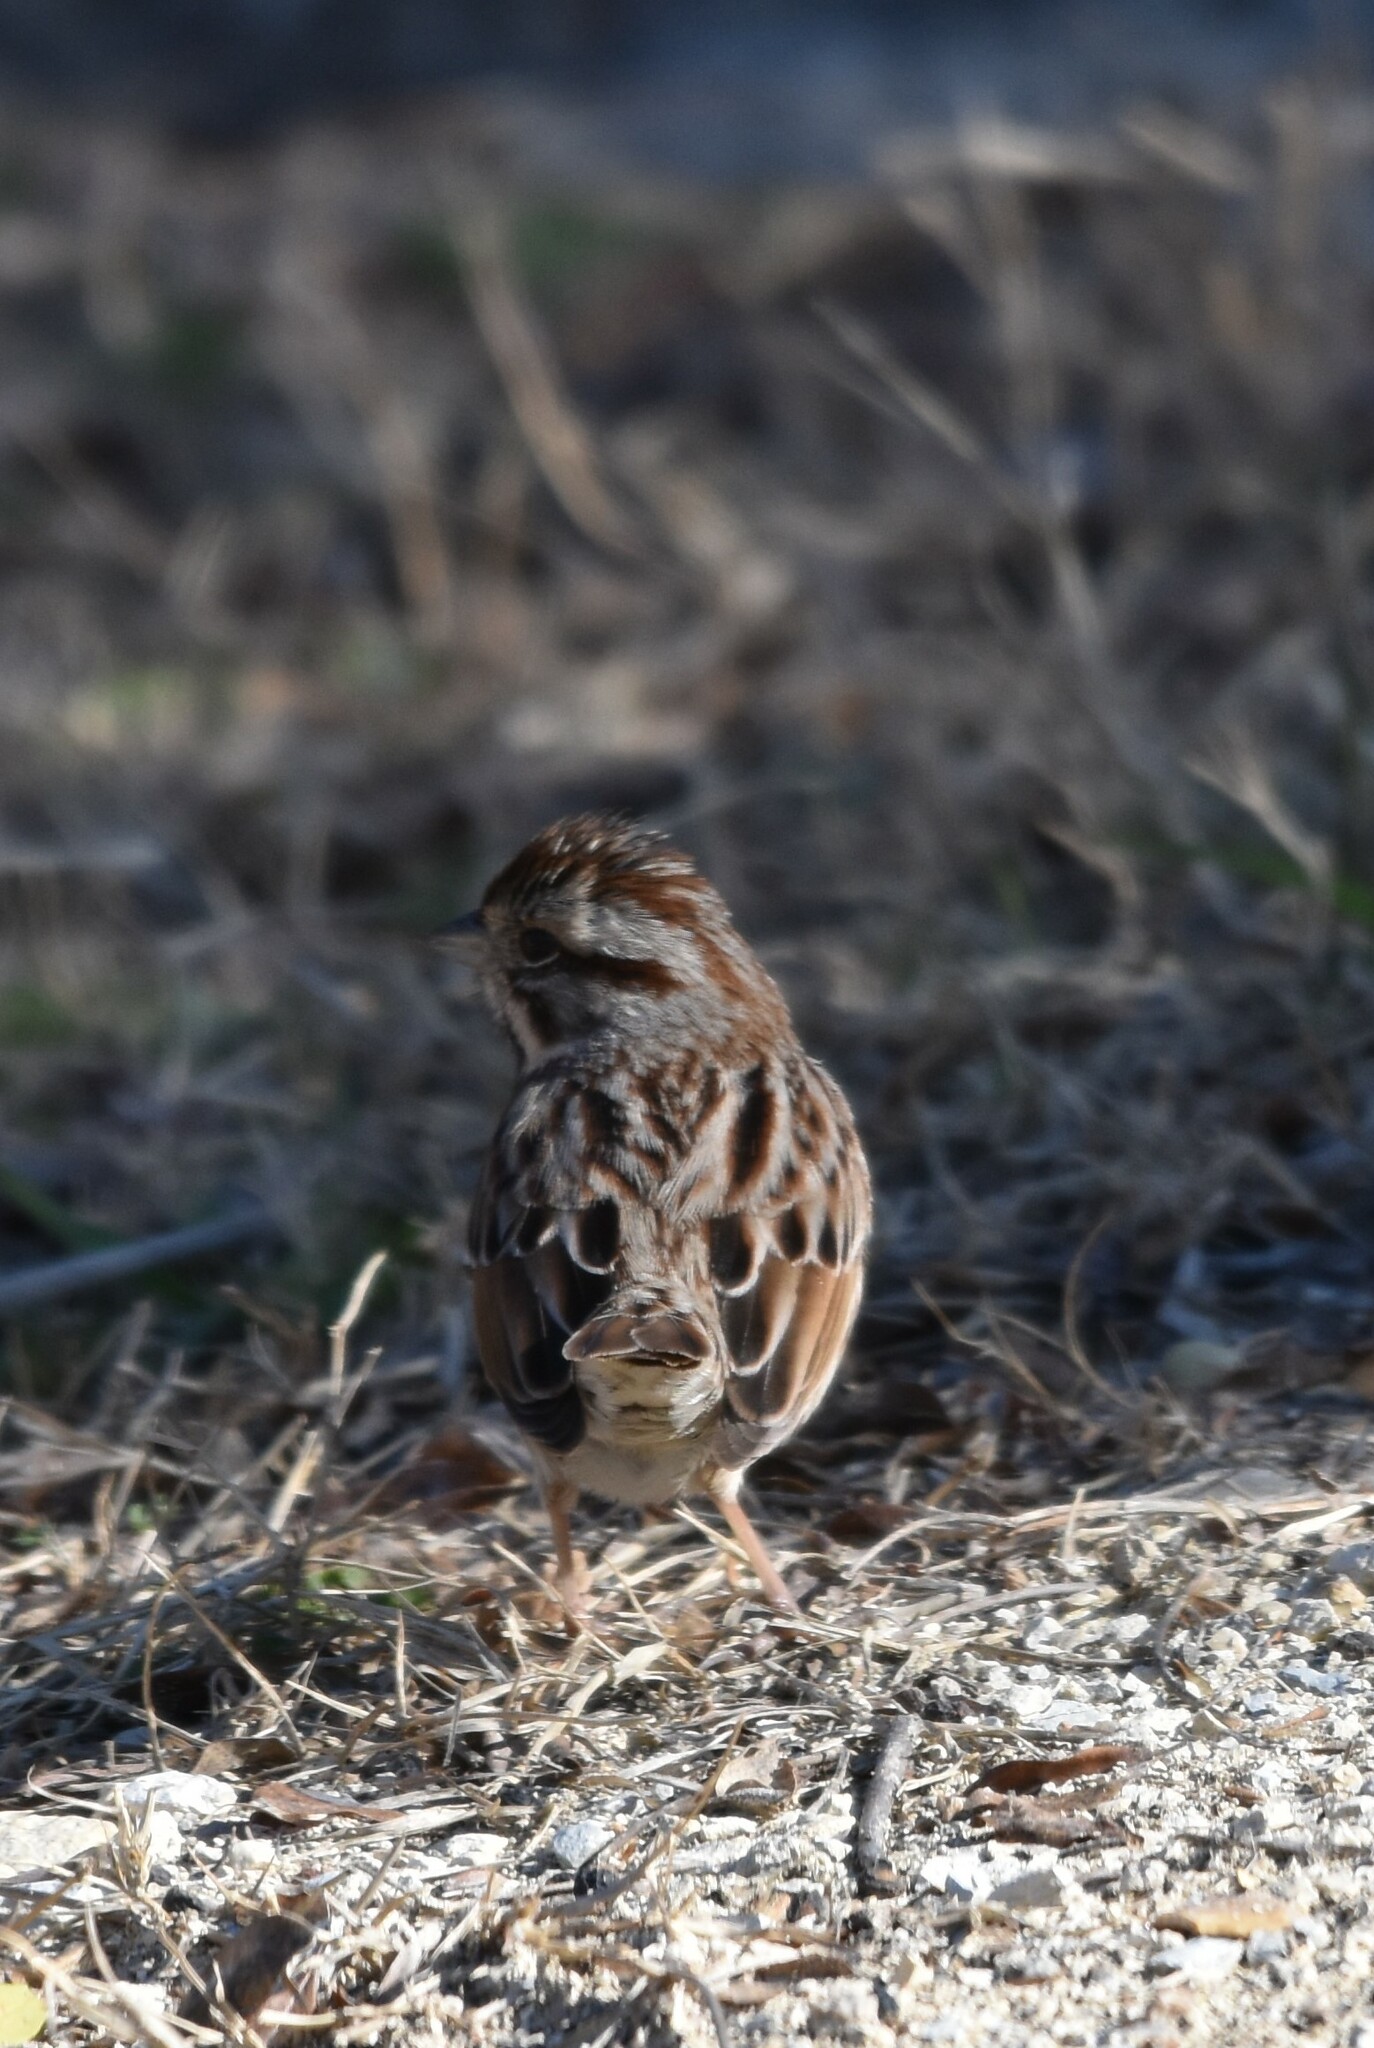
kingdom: Animalia
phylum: Chordata
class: Aves
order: Passeriformes
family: Passerellidae
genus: Melospiza
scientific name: Melospiza melodia
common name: Song sparrow
